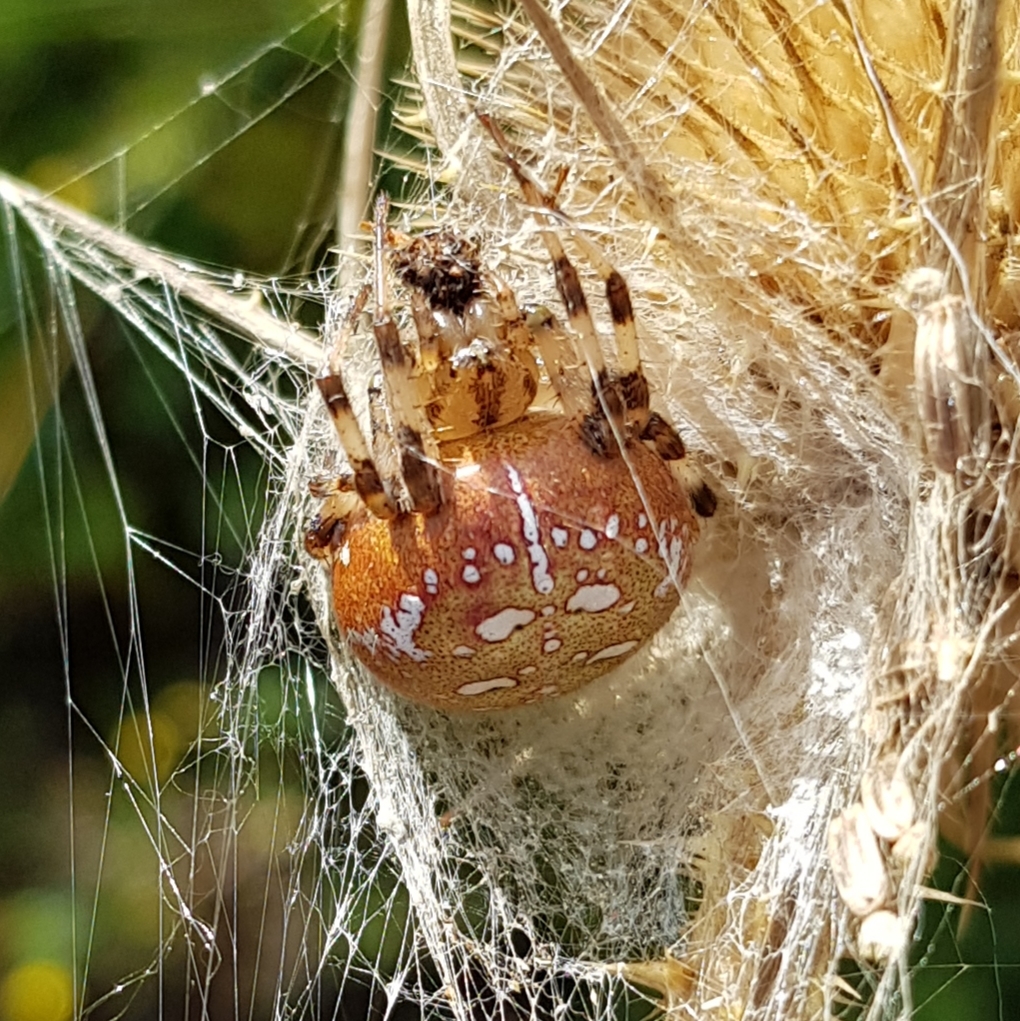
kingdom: Animalia
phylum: Arthropoda
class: Arachnida
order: Araneae
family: Araneidae
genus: Araneus
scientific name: Araneus quadratus
